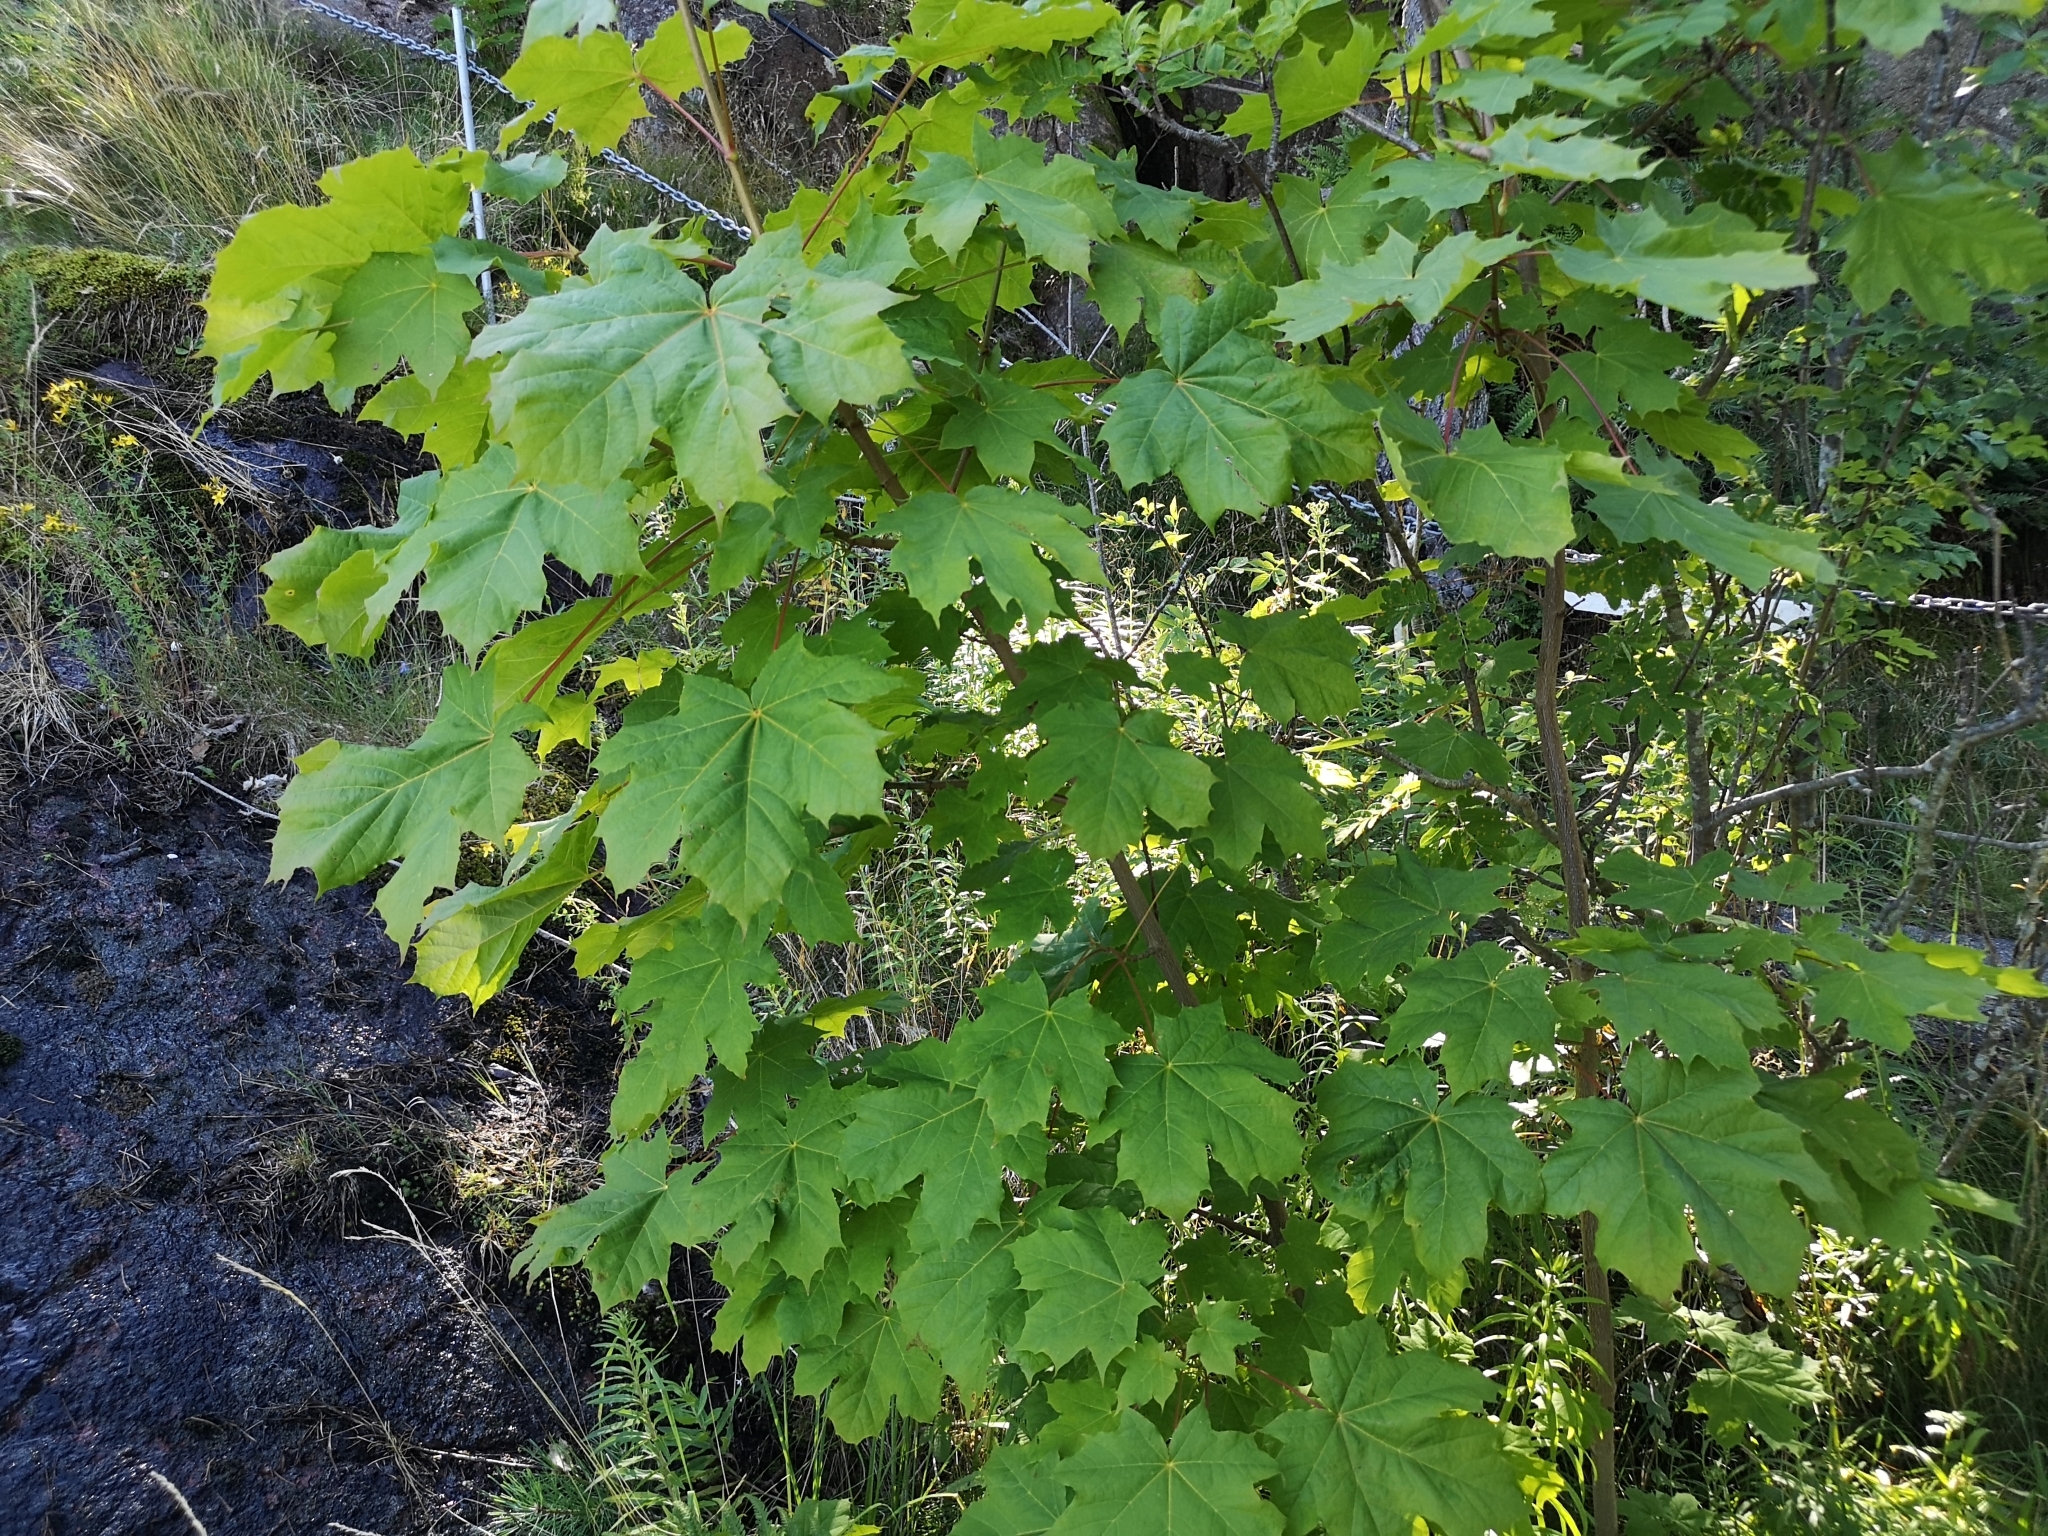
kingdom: Plantae
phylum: Tracheophyta
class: Magnoliopsida
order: Sapindales
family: Sapindaceae
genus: Acer
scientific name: Acer platanoides
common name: Norway maple
